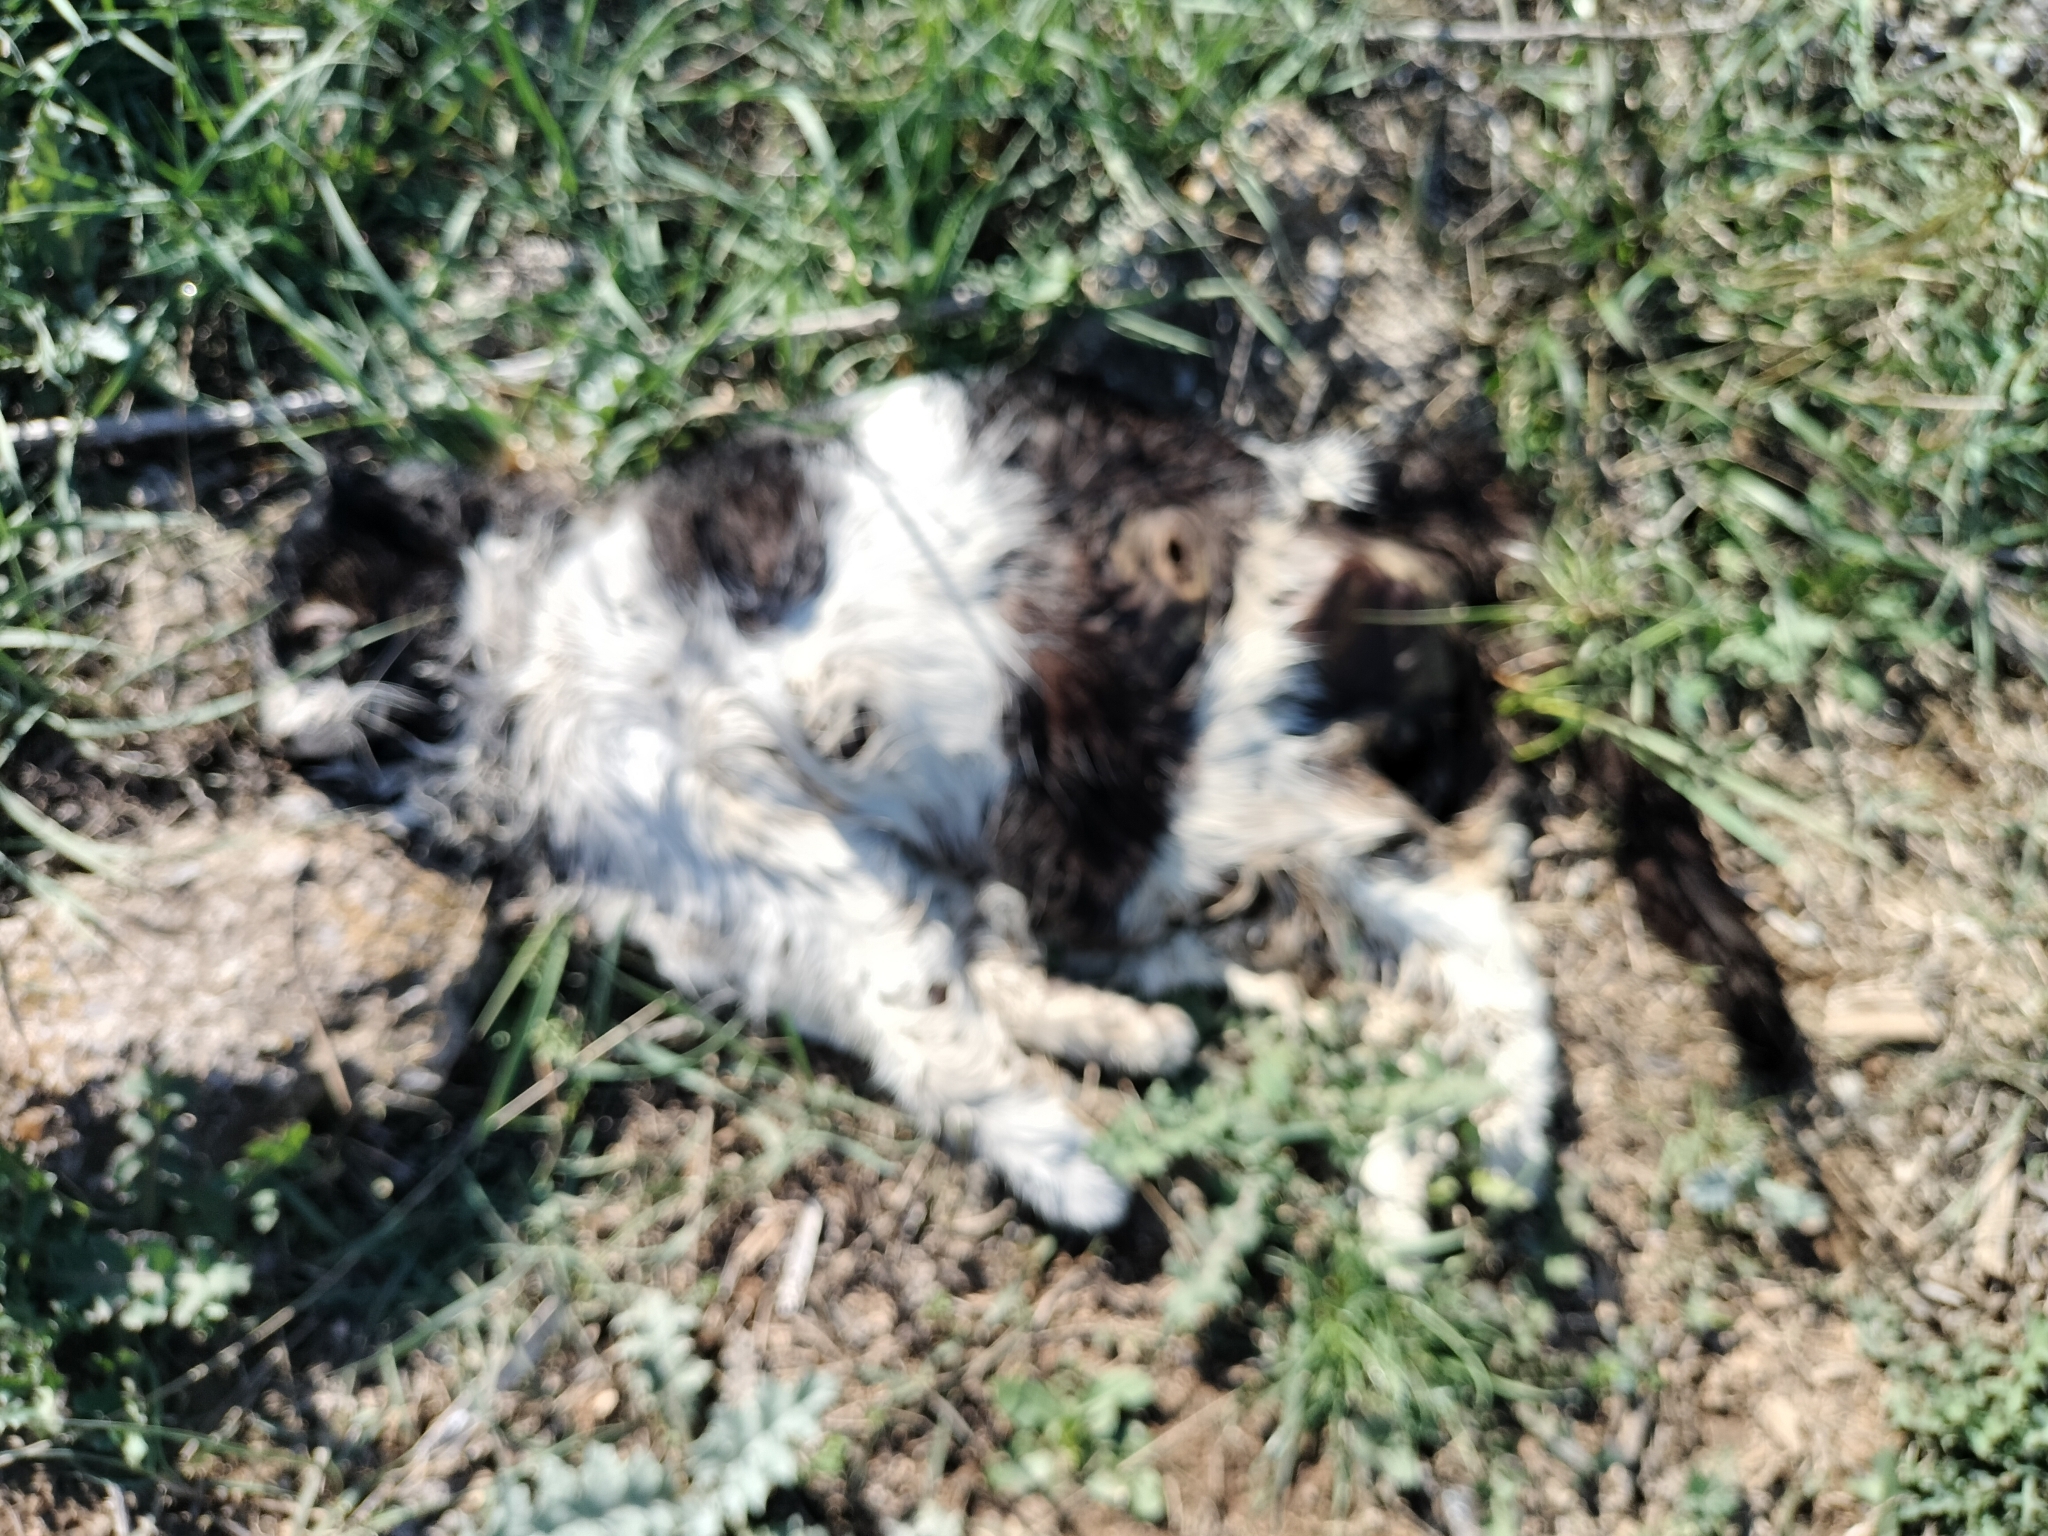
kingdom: Animalia
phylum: Chordata
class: Mammalia
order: Carnivora
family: Felidae
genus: Felis
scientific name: Felis catus
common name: Domestic cat
